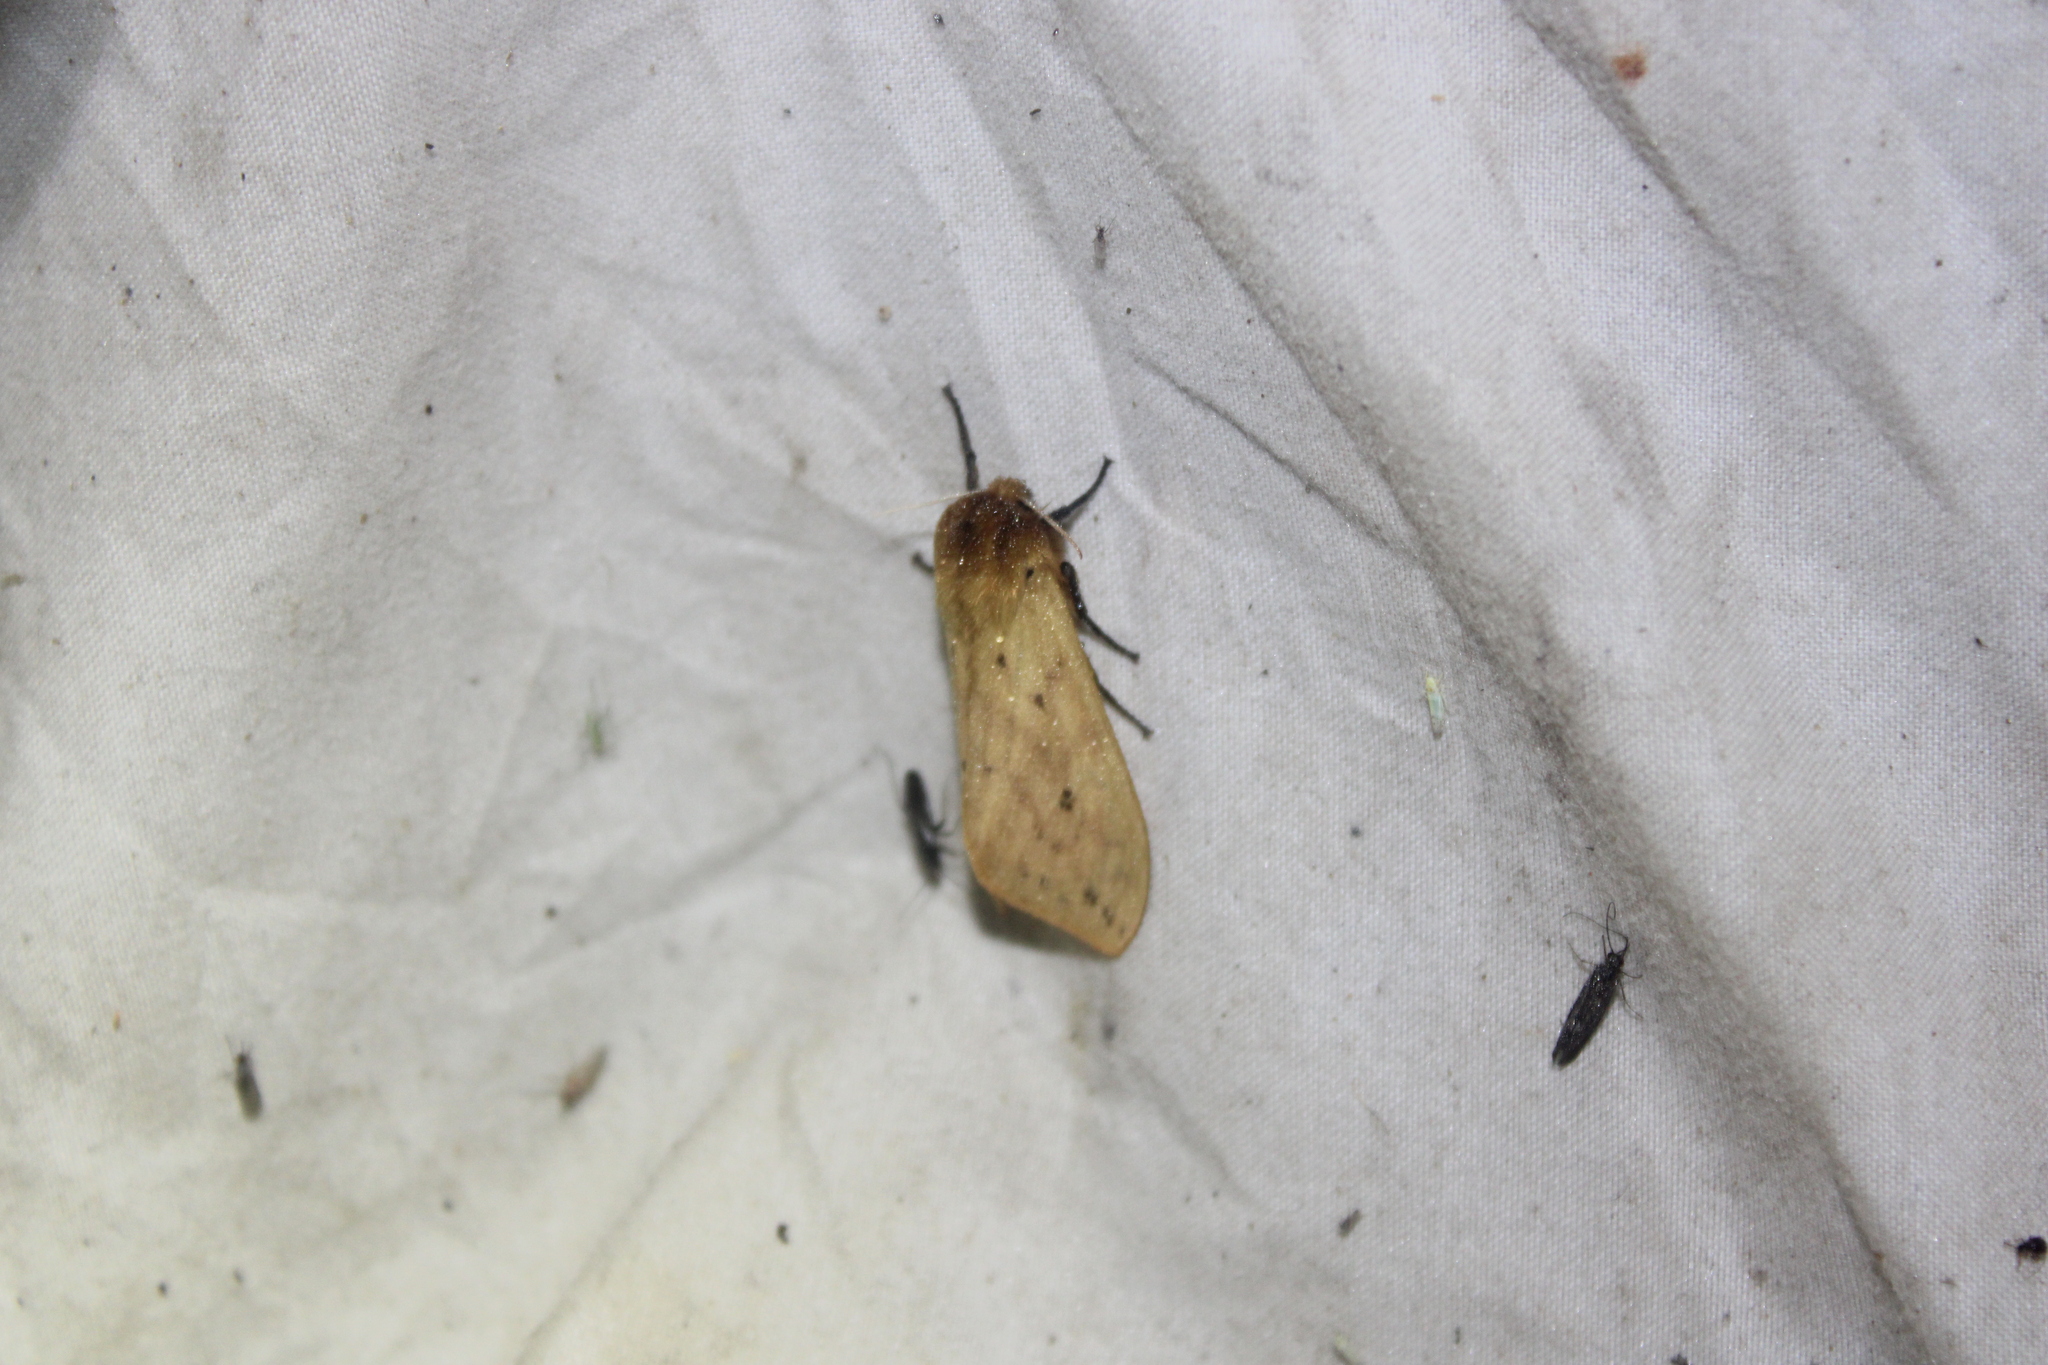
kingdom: Animalia
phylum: Arthropoda
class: Insecta
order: Lepidoptera
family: Erebidae
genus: Pyrrharctia
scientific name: Pyrrharctia isabella
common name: Isabella tiger moth
